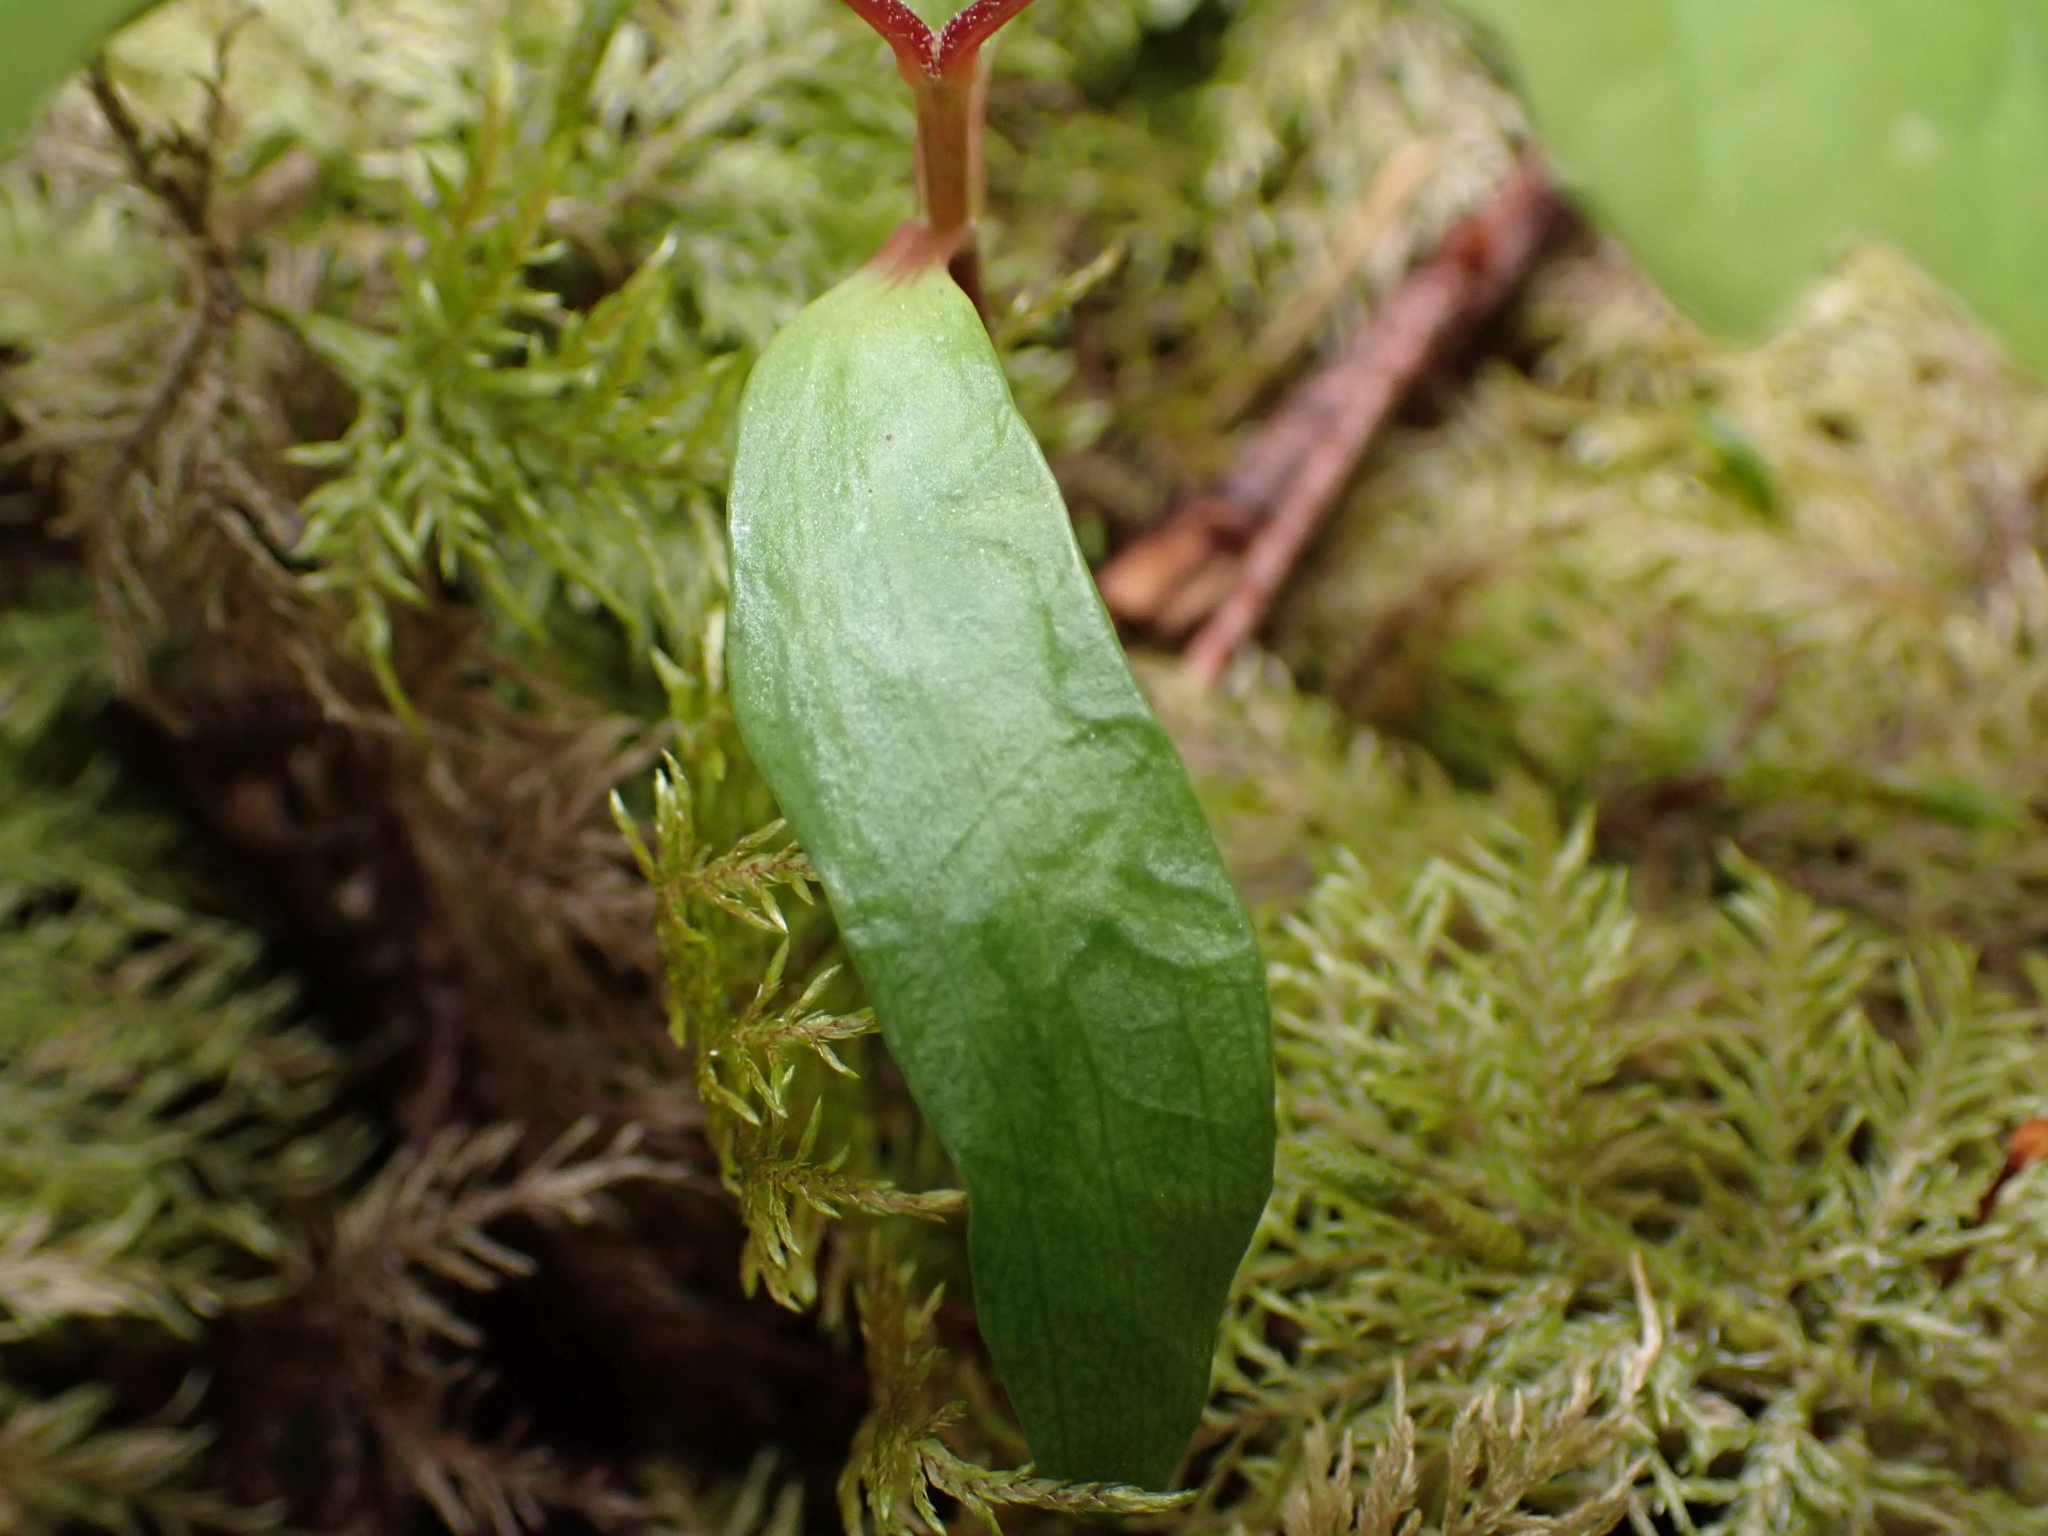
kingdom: Plantae
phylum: Tracheophyta
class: Magnoliopsida
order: Sapindales
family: Sapindaceae
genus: Acer
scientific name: Acer macrophyllum
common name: Oregon maple
